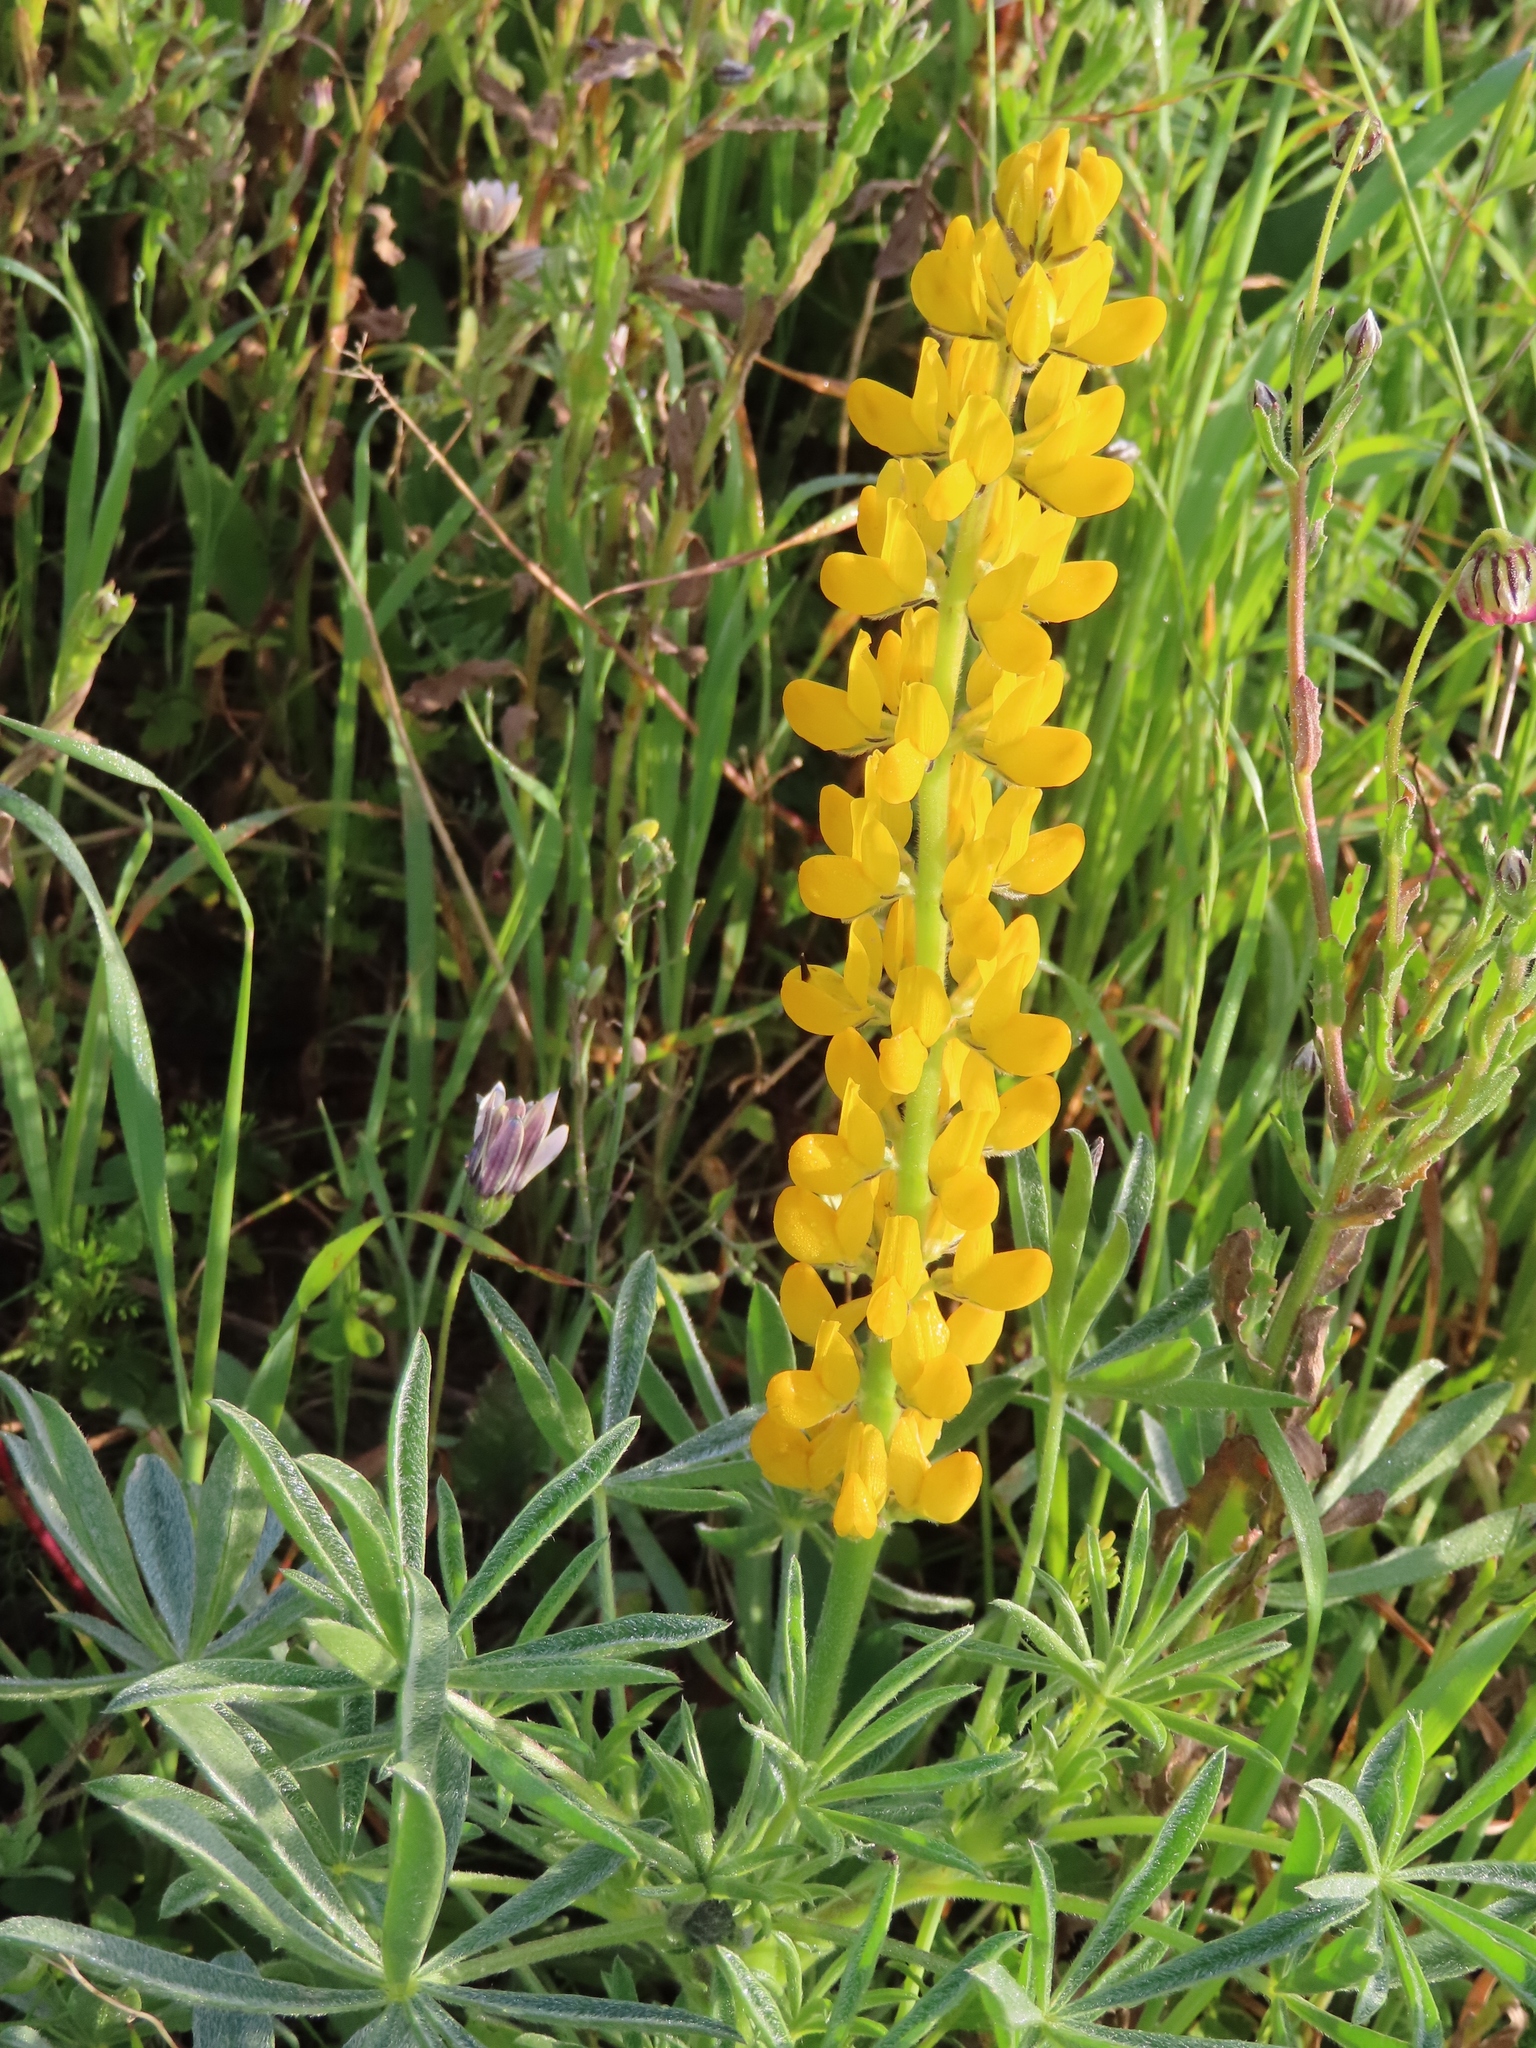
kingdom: Plantae
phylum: Tracheophyta
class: Magnoliopsida
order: Fabales
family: Fabaceae
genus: Lupinus
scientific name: Lupinus luteus
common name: European yellow lupine
